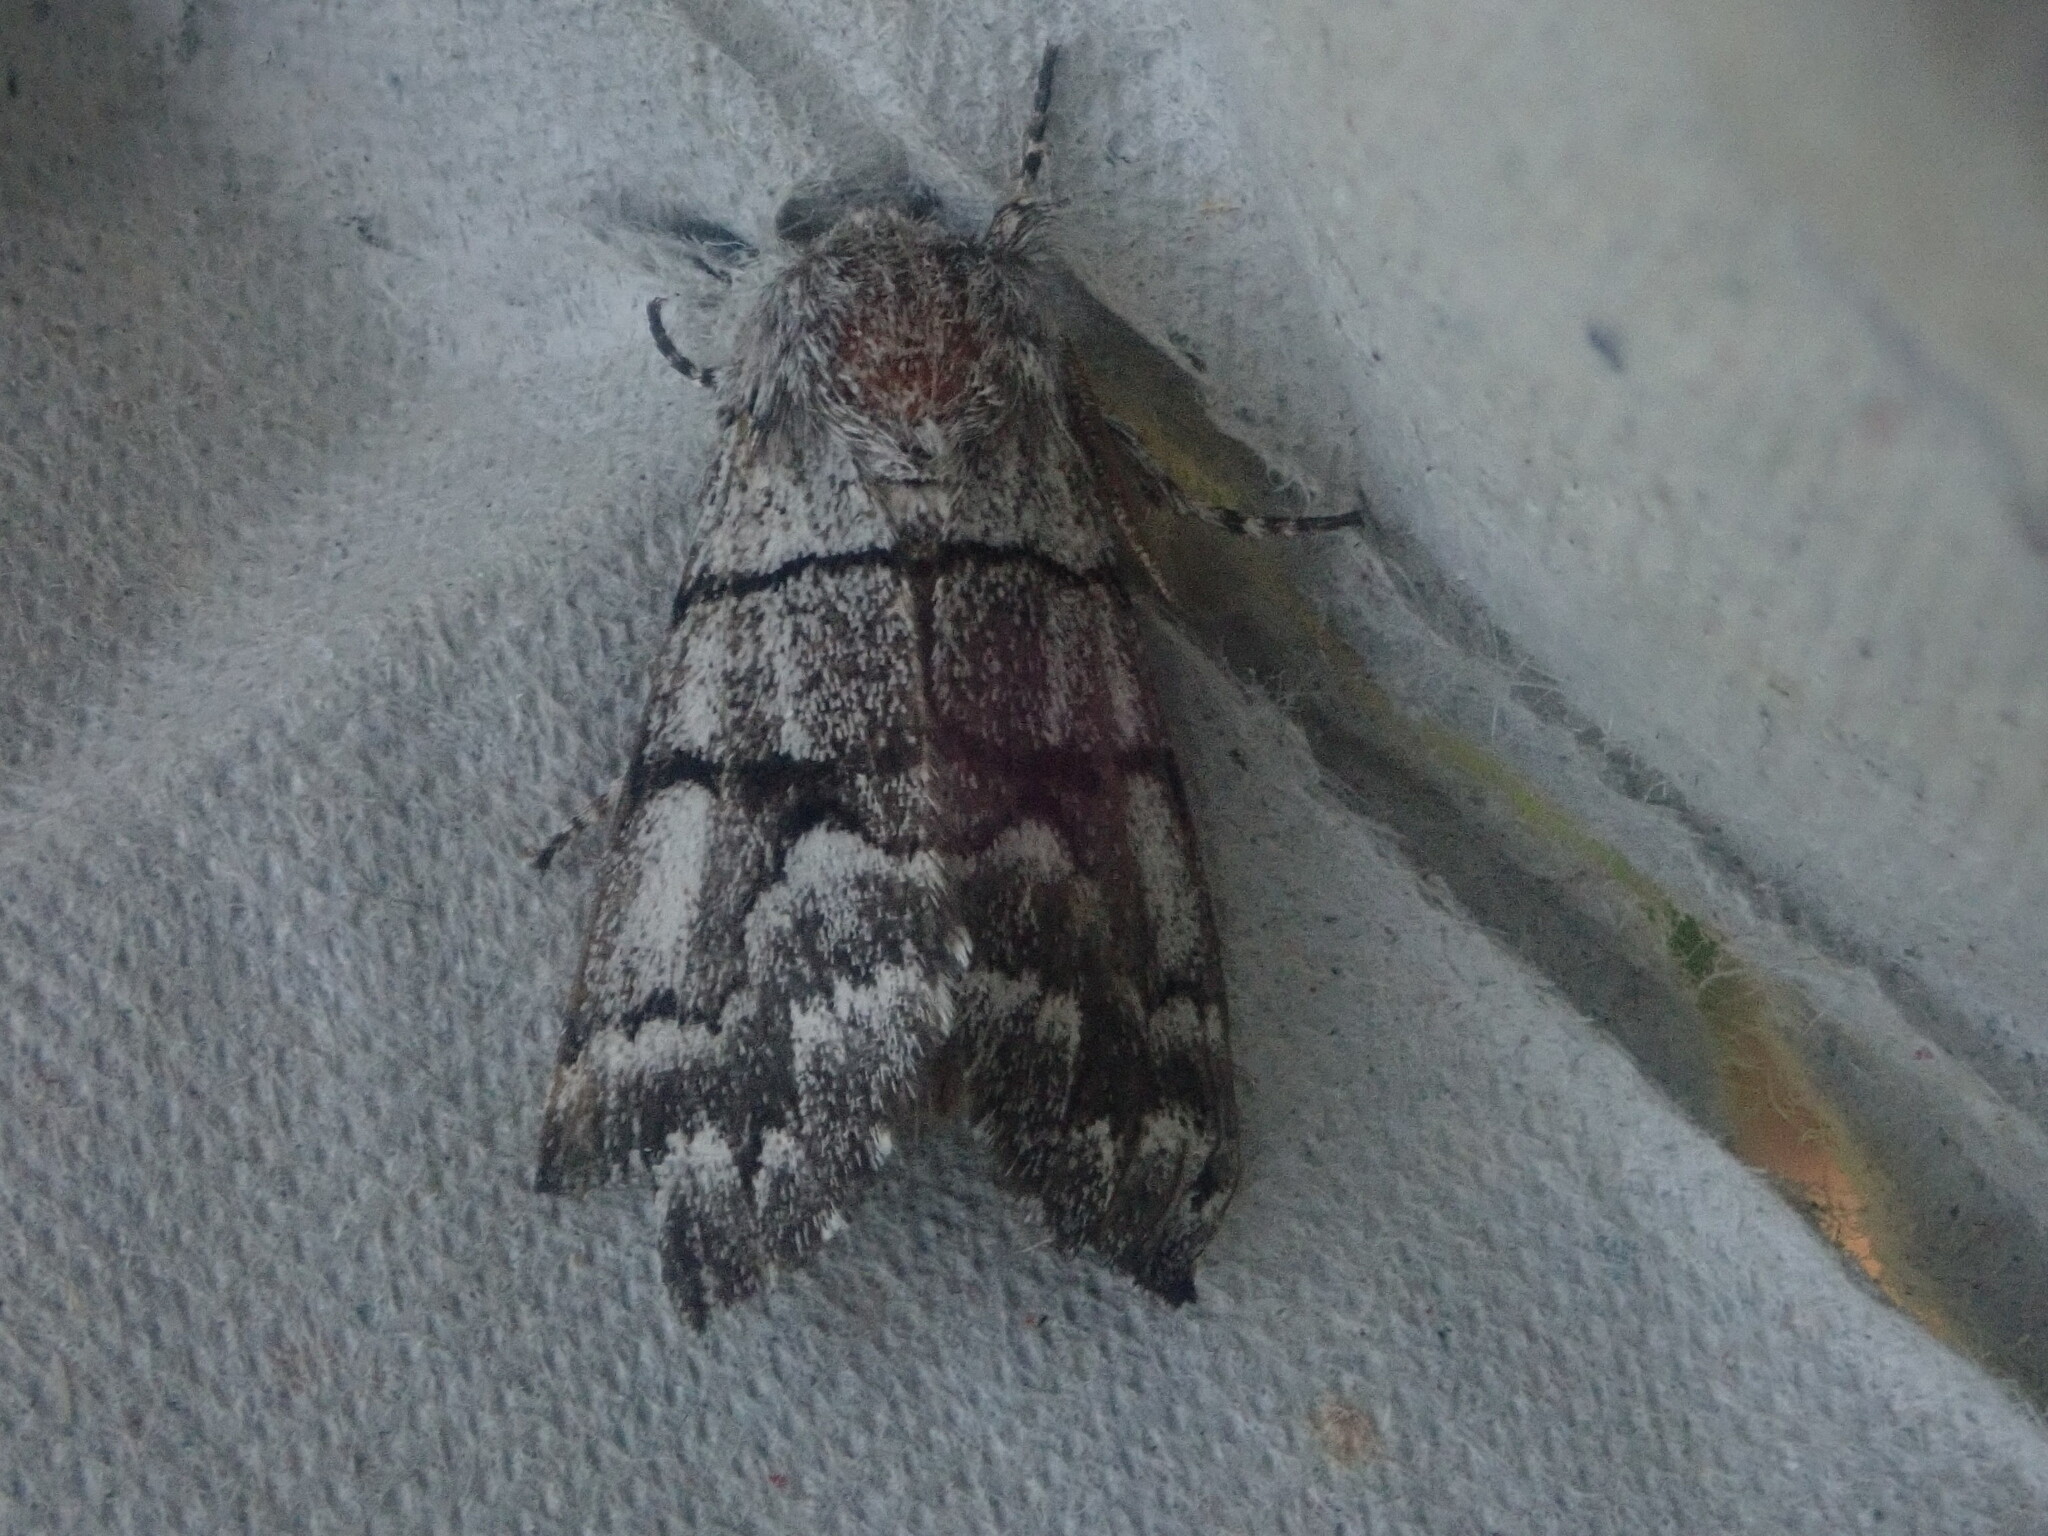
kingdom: Animalia
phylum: Arthropoda
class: Insecta
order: Lepidoptera
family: Noctuidae
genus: Panthea
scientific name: Panthea furcilla
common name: Eastern panthea moth
